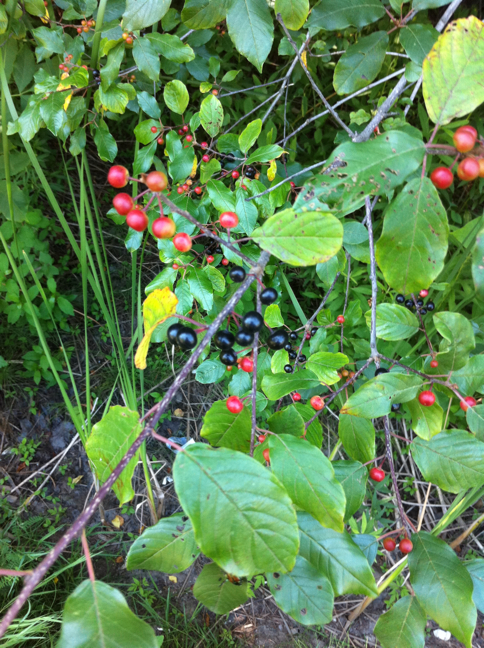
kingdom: Plantae
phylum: Tracheophyta
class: Magnoliopsida
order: Rosales
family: Rhamnaceae
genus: Frangula
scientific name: Frangula alnus
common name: Alder buckthorn
